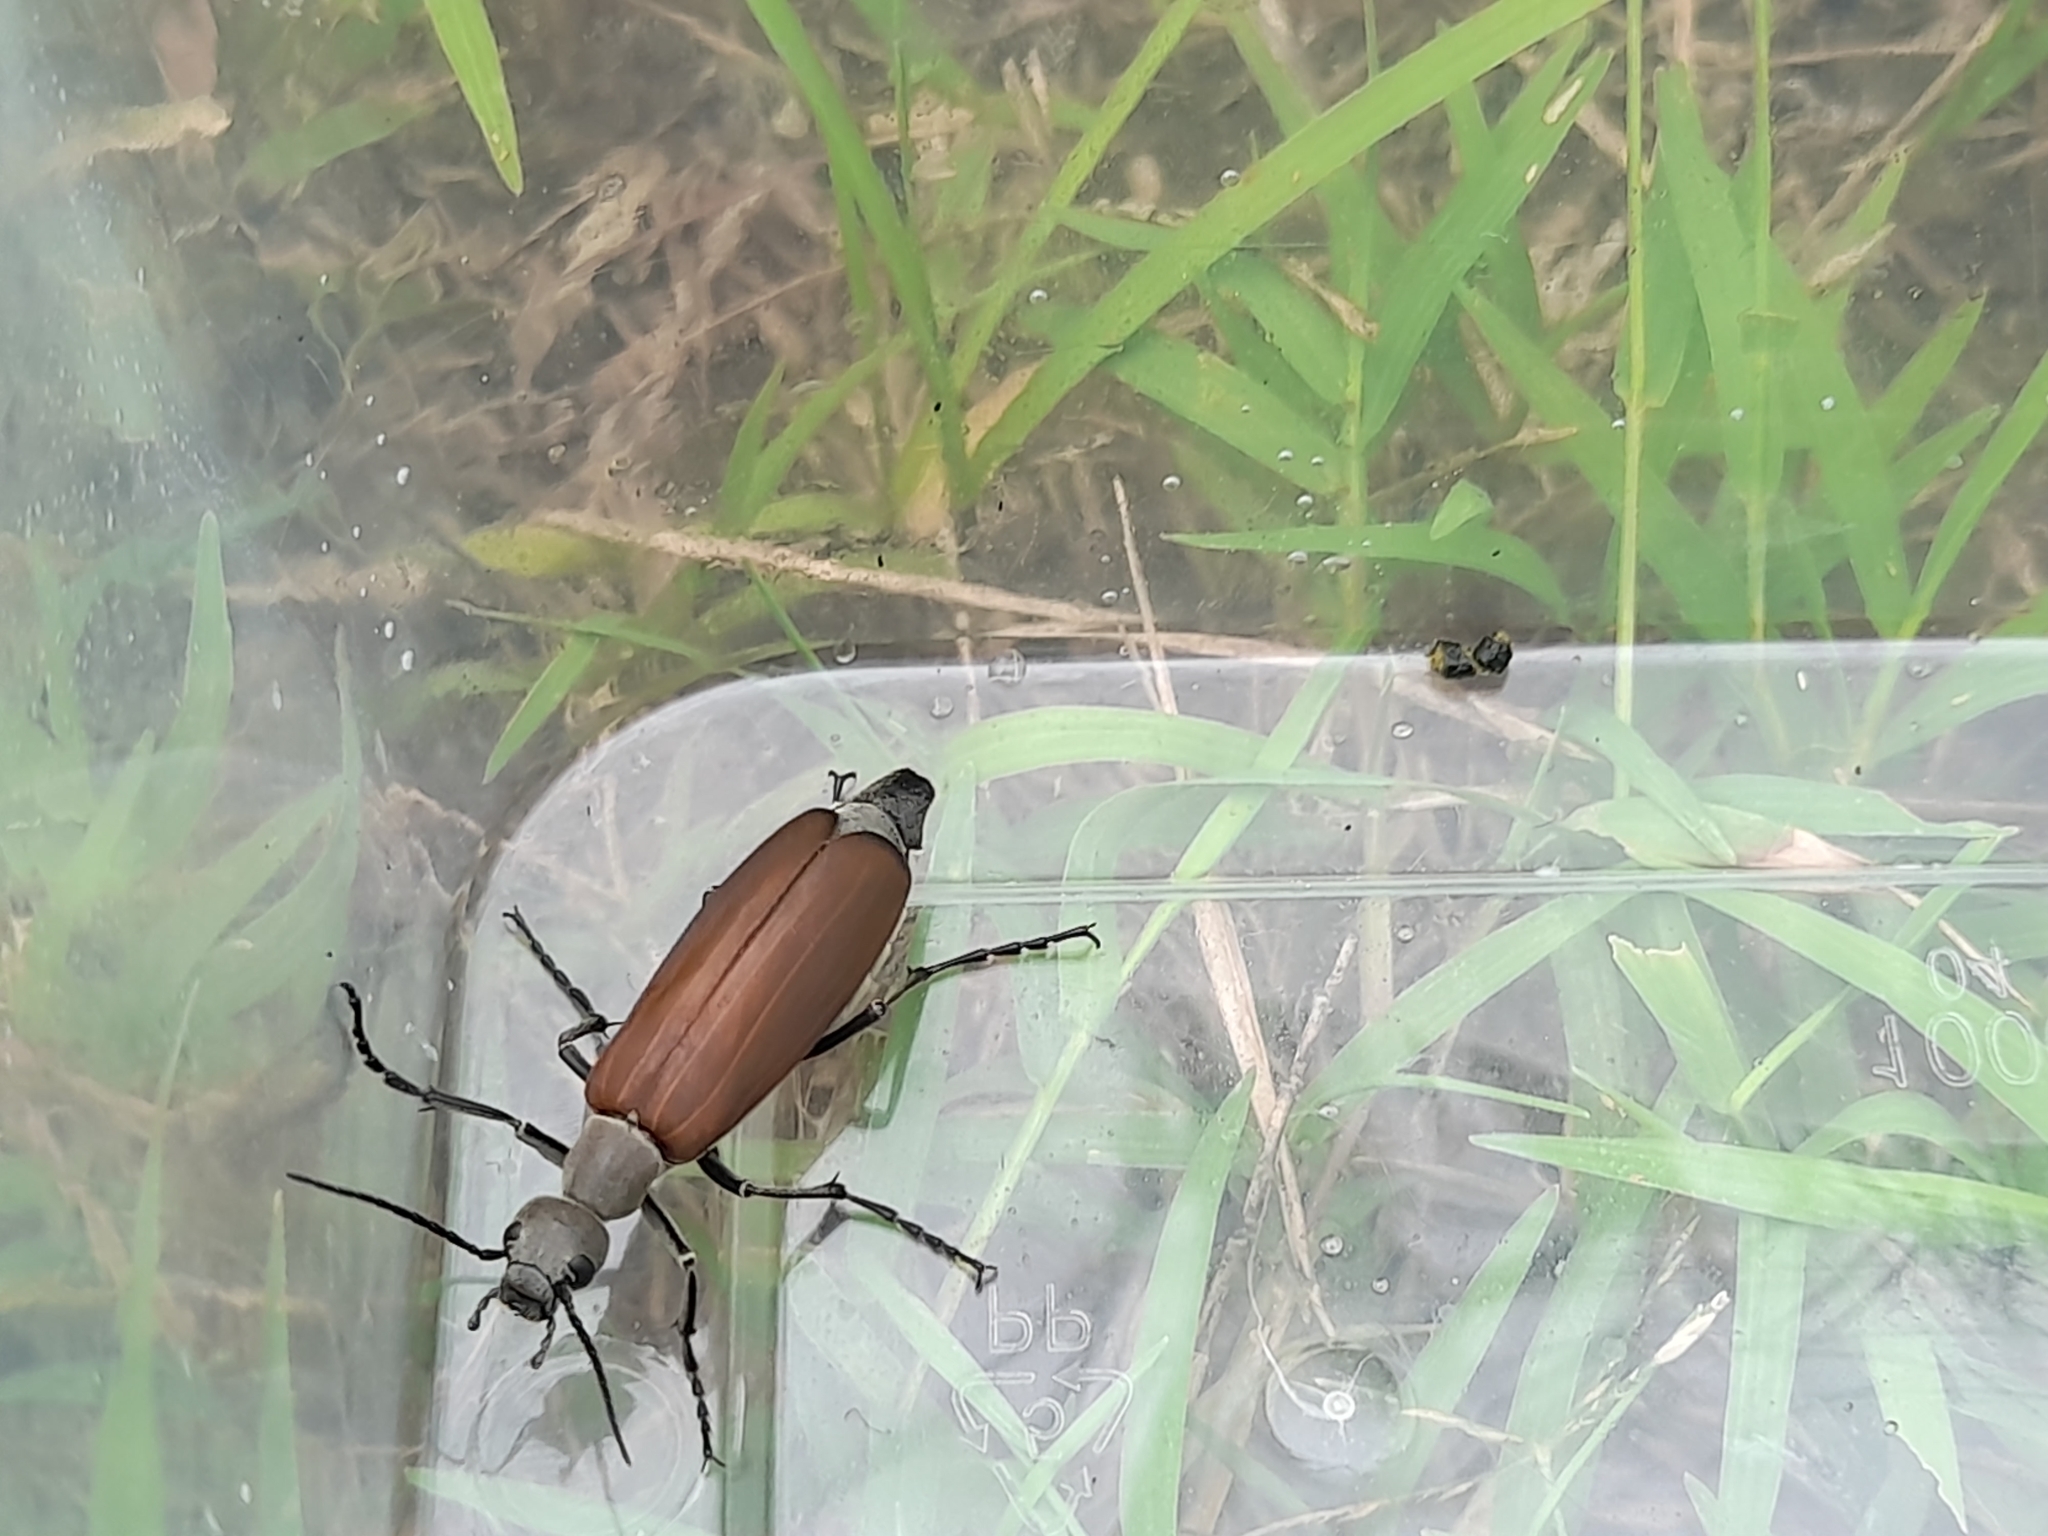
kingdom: Animalia
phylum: Arthropoda
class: Insecta
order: Coleoptera
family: Meloidae
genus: Epicauta
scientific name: Epicauta carmelita
